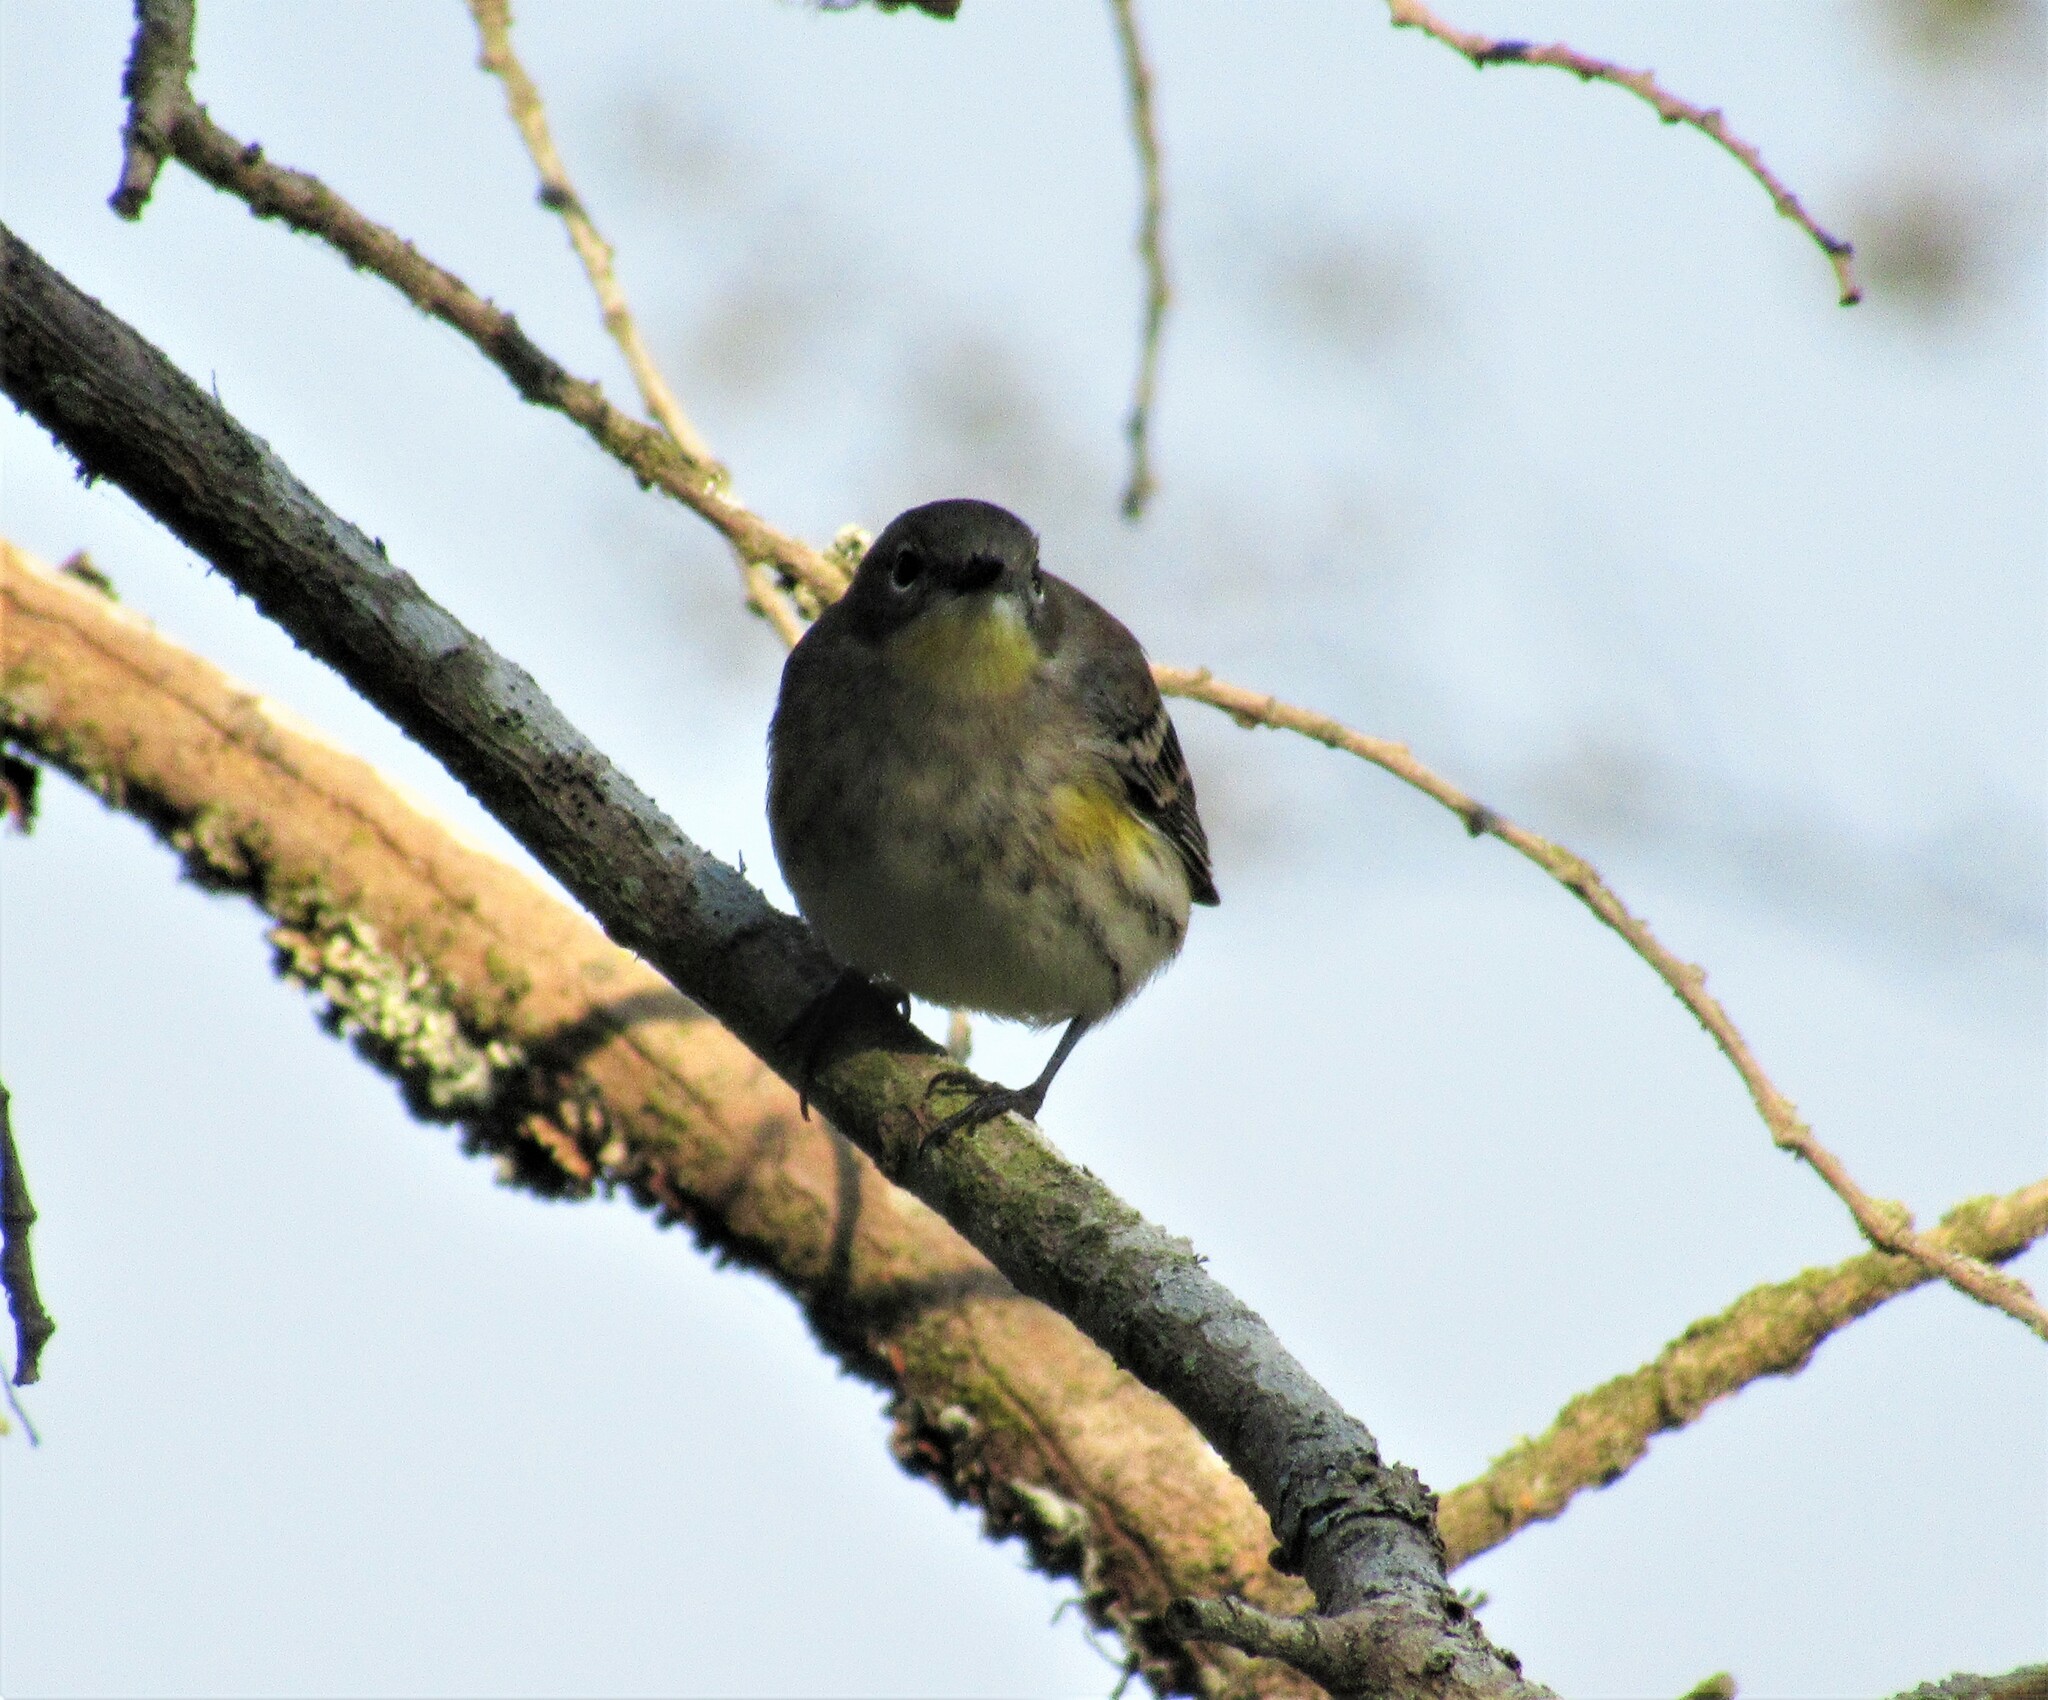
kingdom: Animalia
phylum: Chordata
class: Aves
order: Passeriformes
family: Parulidae
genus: Setophaga
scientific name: Setophaga auduboni
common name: Audubon's warbler
